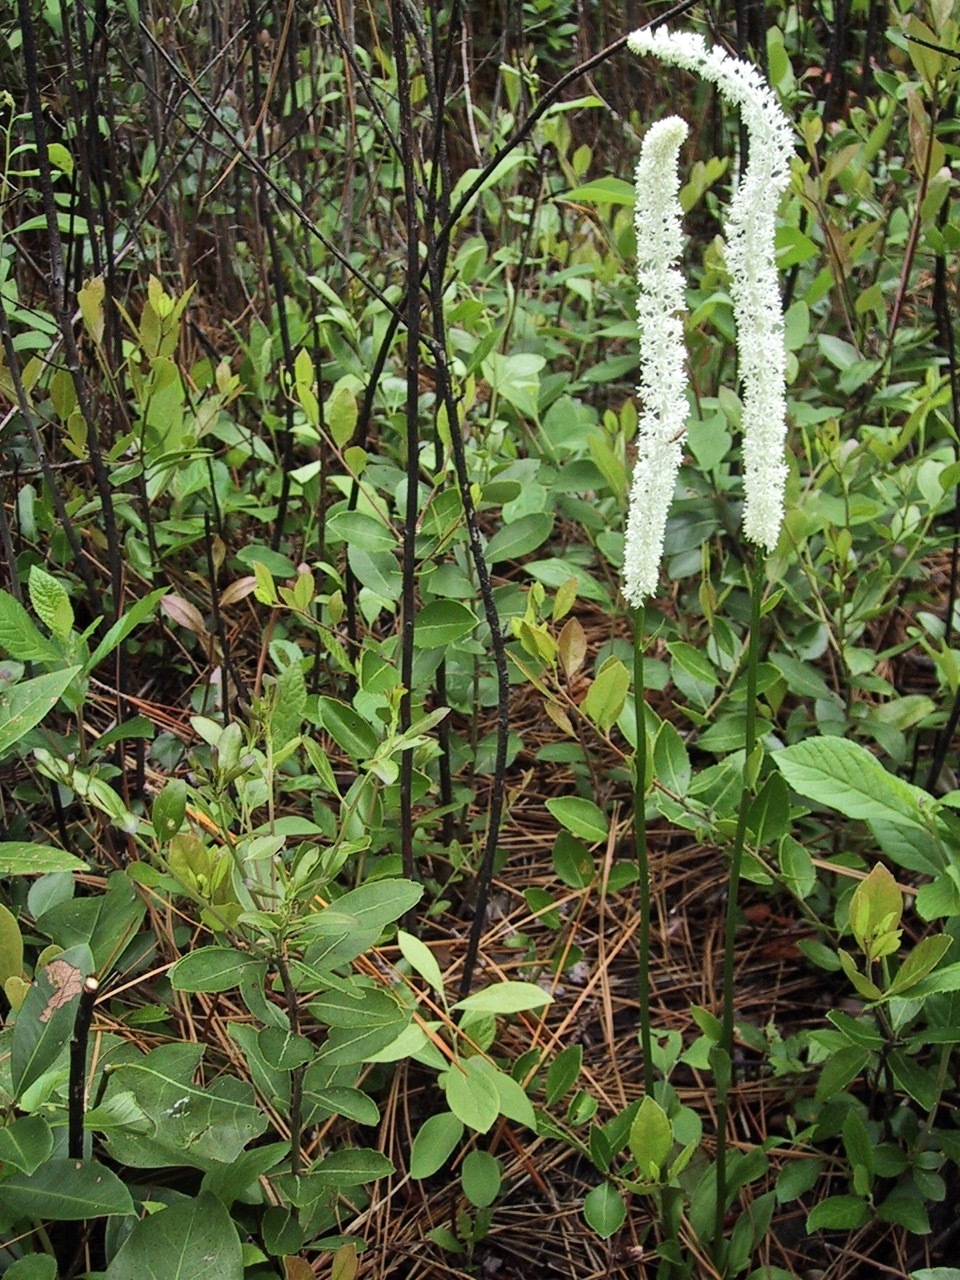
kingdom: Plantae
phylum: Tracheophyta
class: Liliopsida
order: Liliales
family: Melanthiaceae
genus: Chamaelirium
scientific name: Chamaelirium luteum
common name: Fairy-wand
